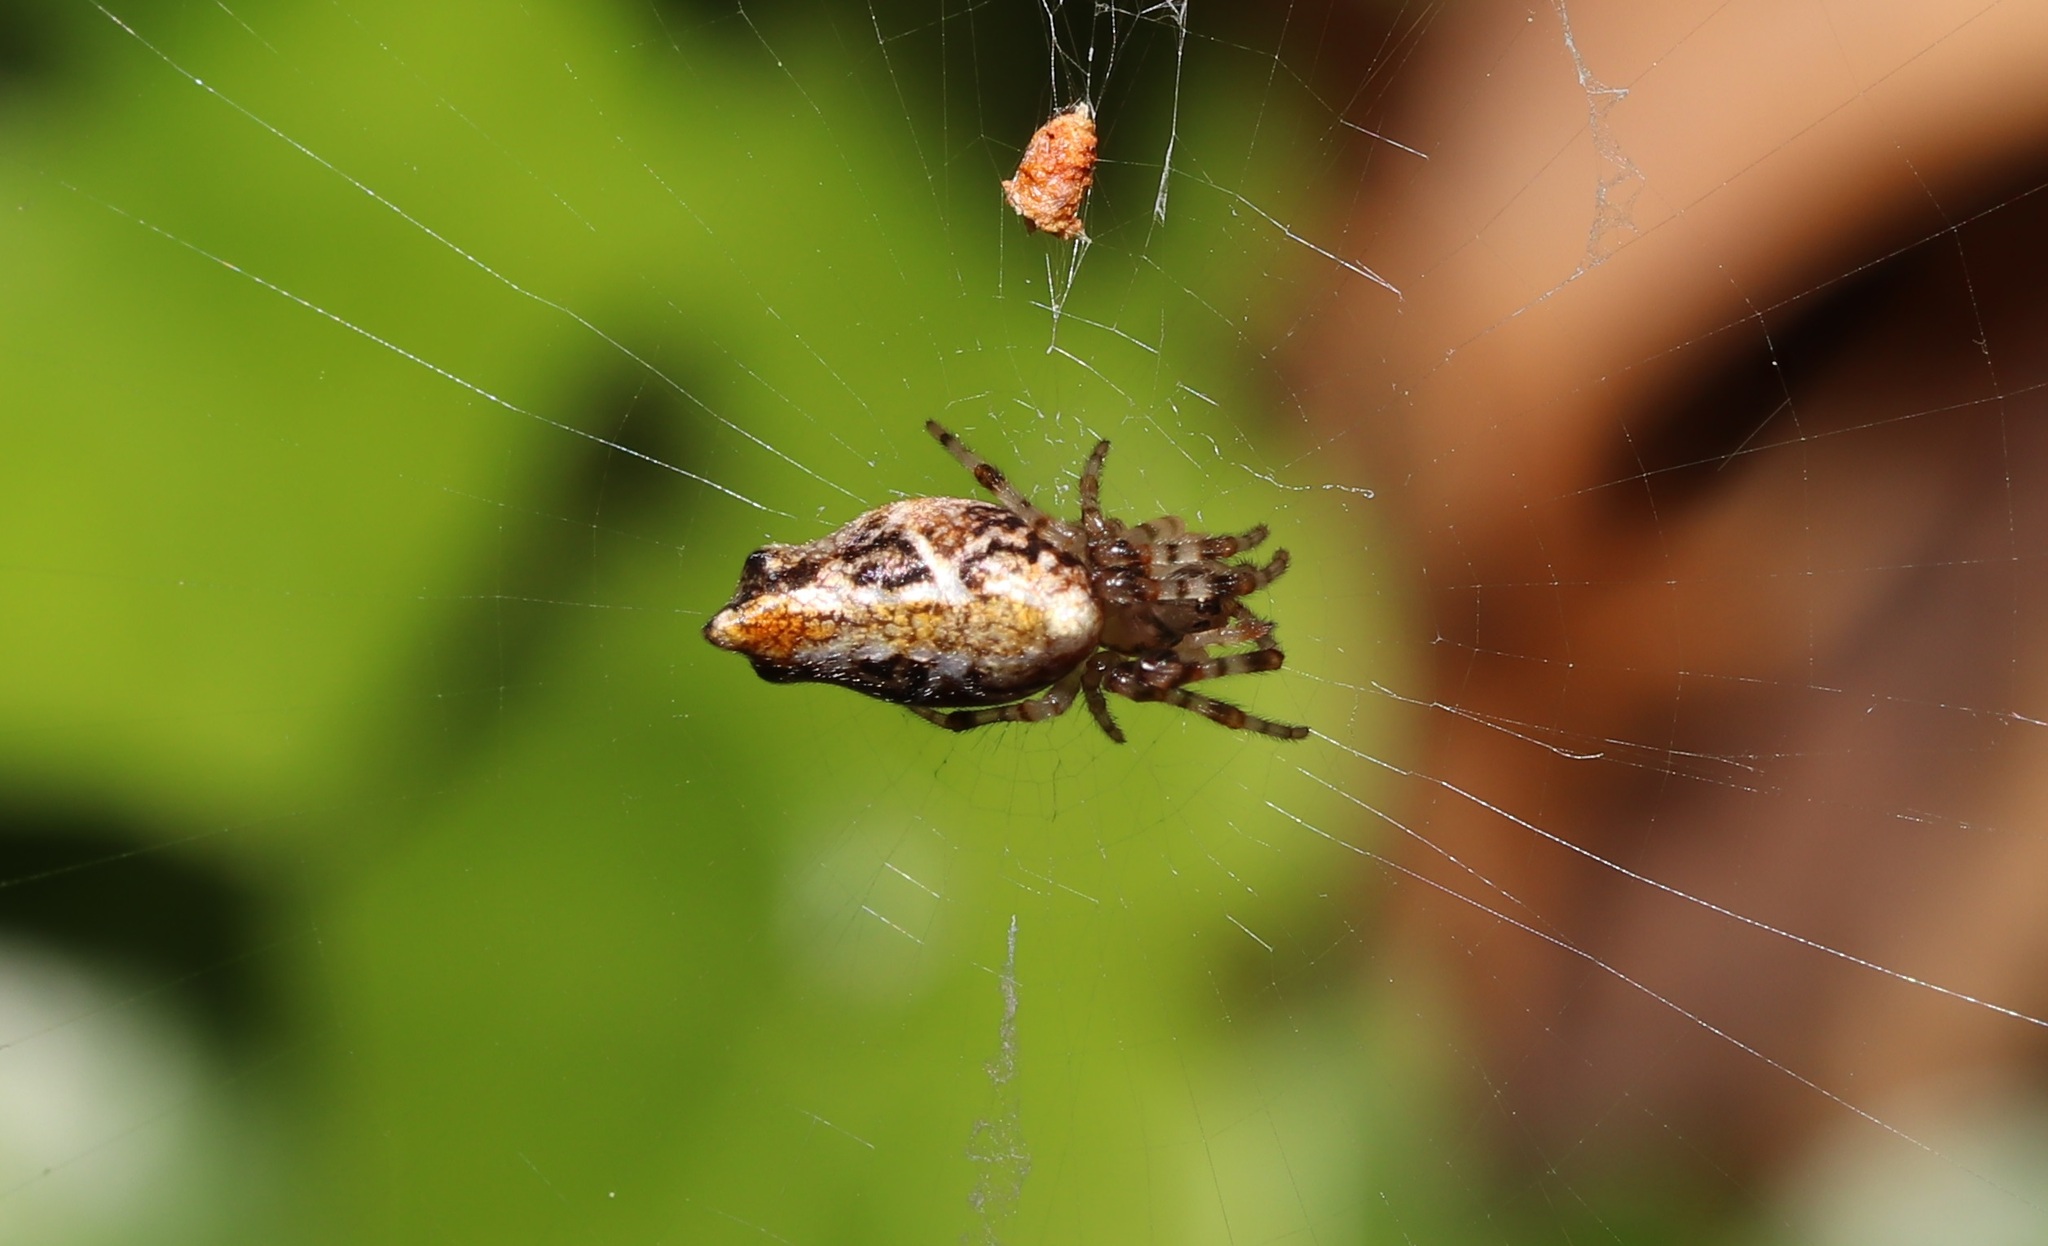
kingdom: Animalia
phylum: Arthropoda
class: Arachnida
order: Araneae
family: Araneidae
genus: Cyclosa
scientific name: Cyclosa confusa
